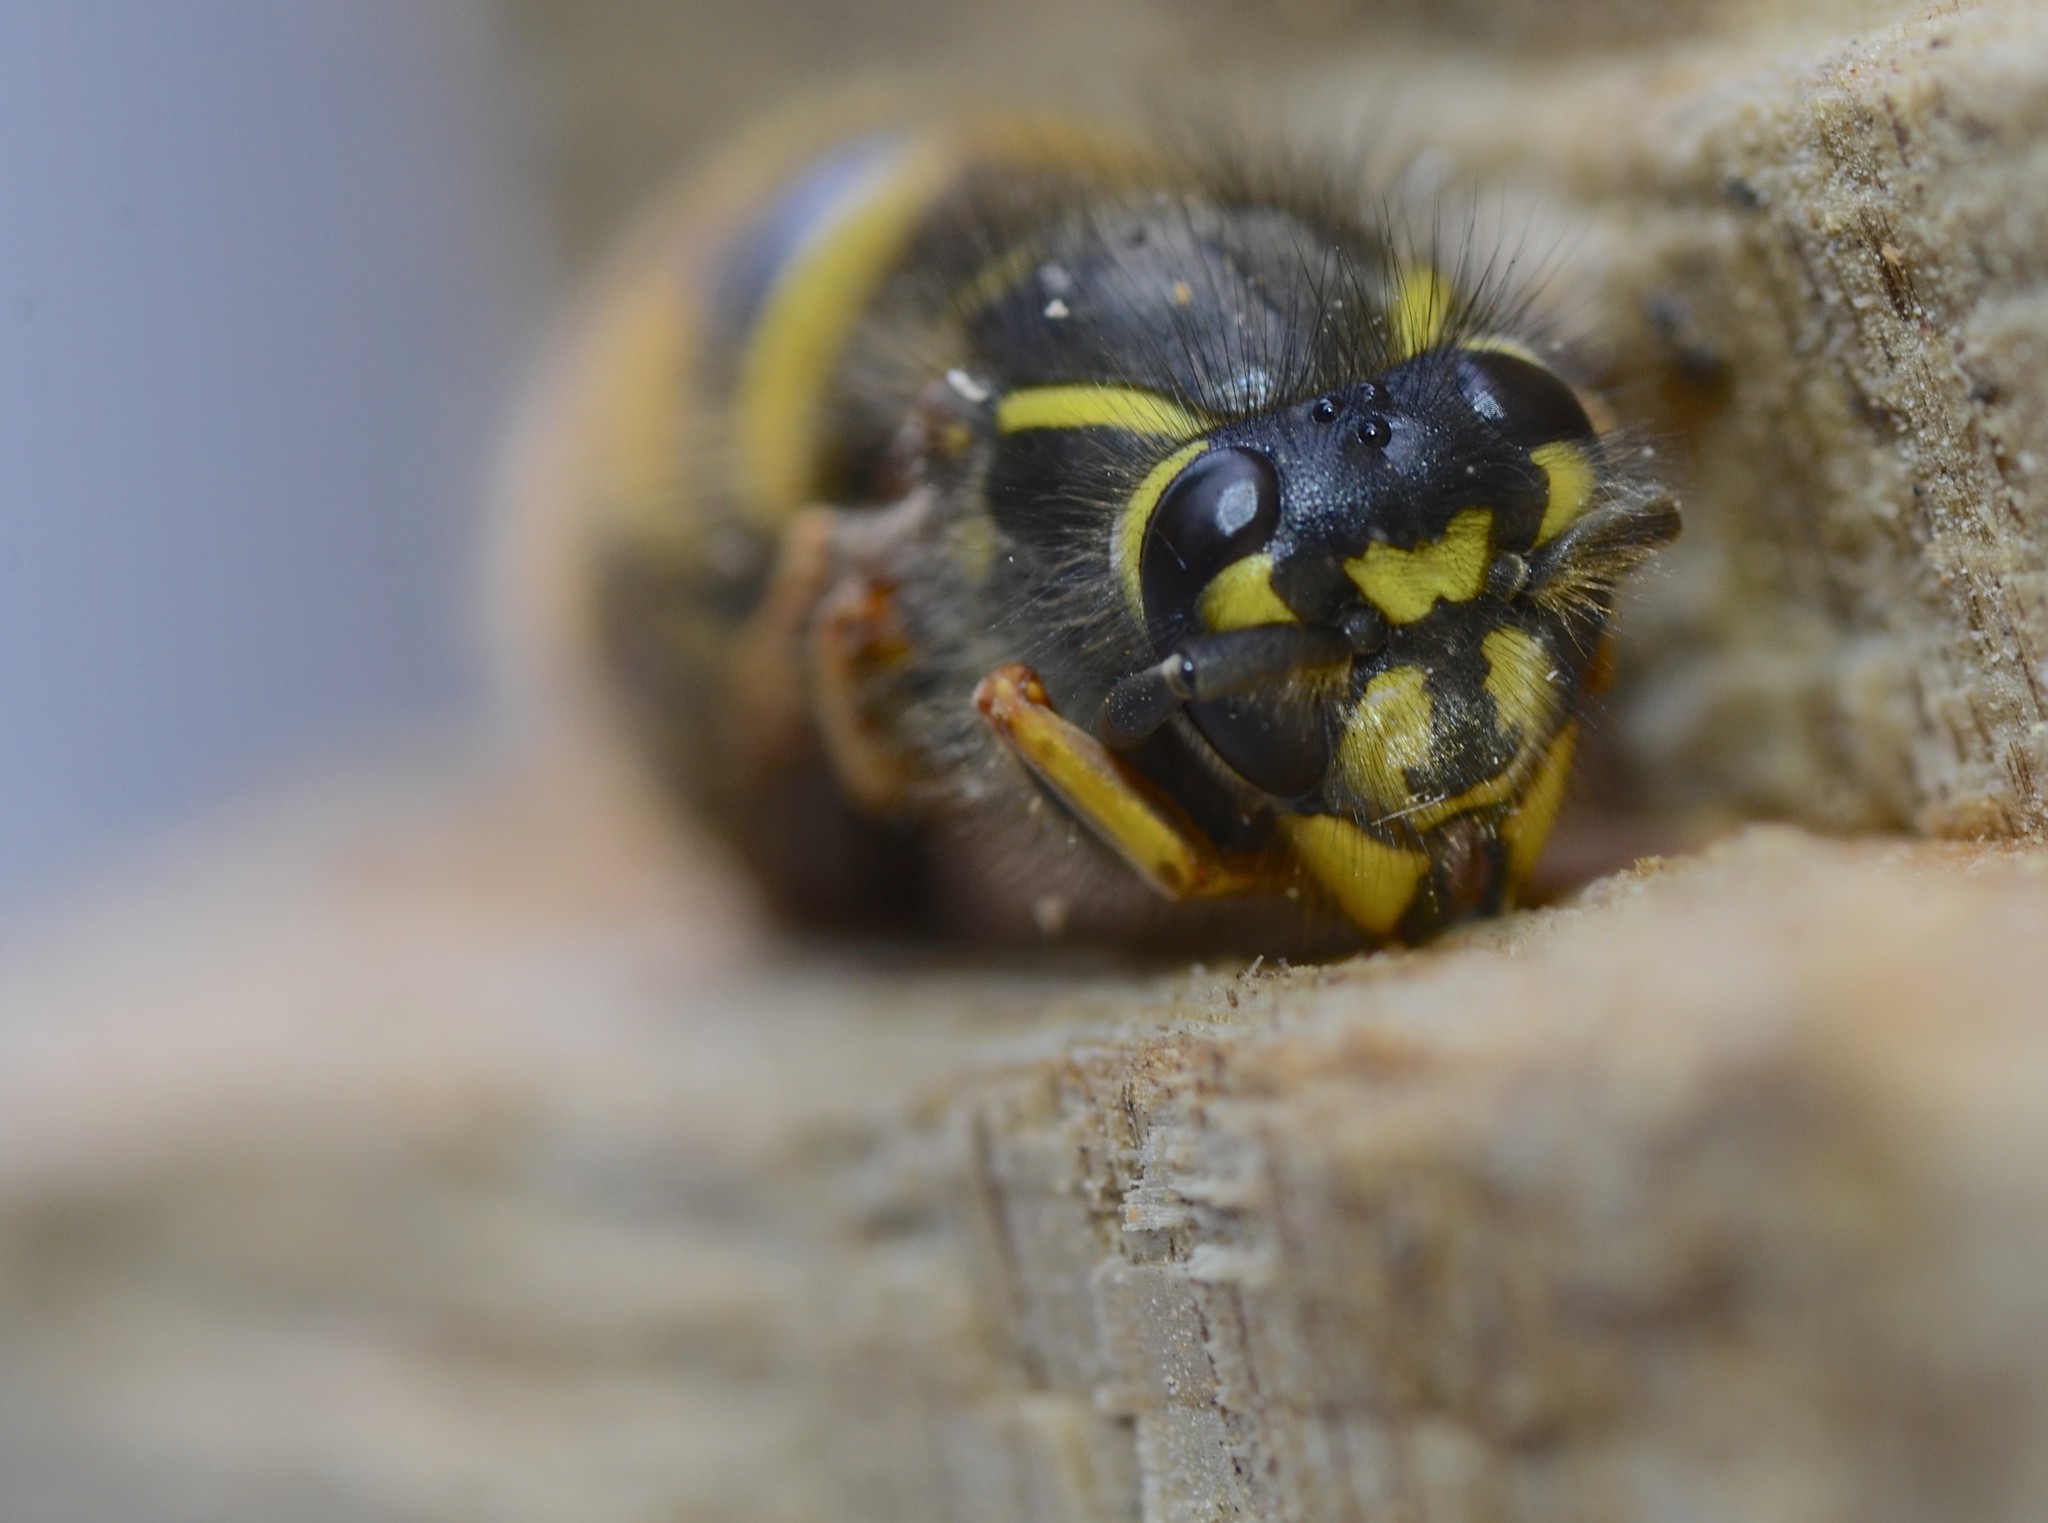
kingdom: Animalia
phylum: Arthropoda
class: Insecta
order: Hymenoptera
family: Vespidae
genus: Vespula
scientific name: Vespula vulgaris
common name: Common wasp
